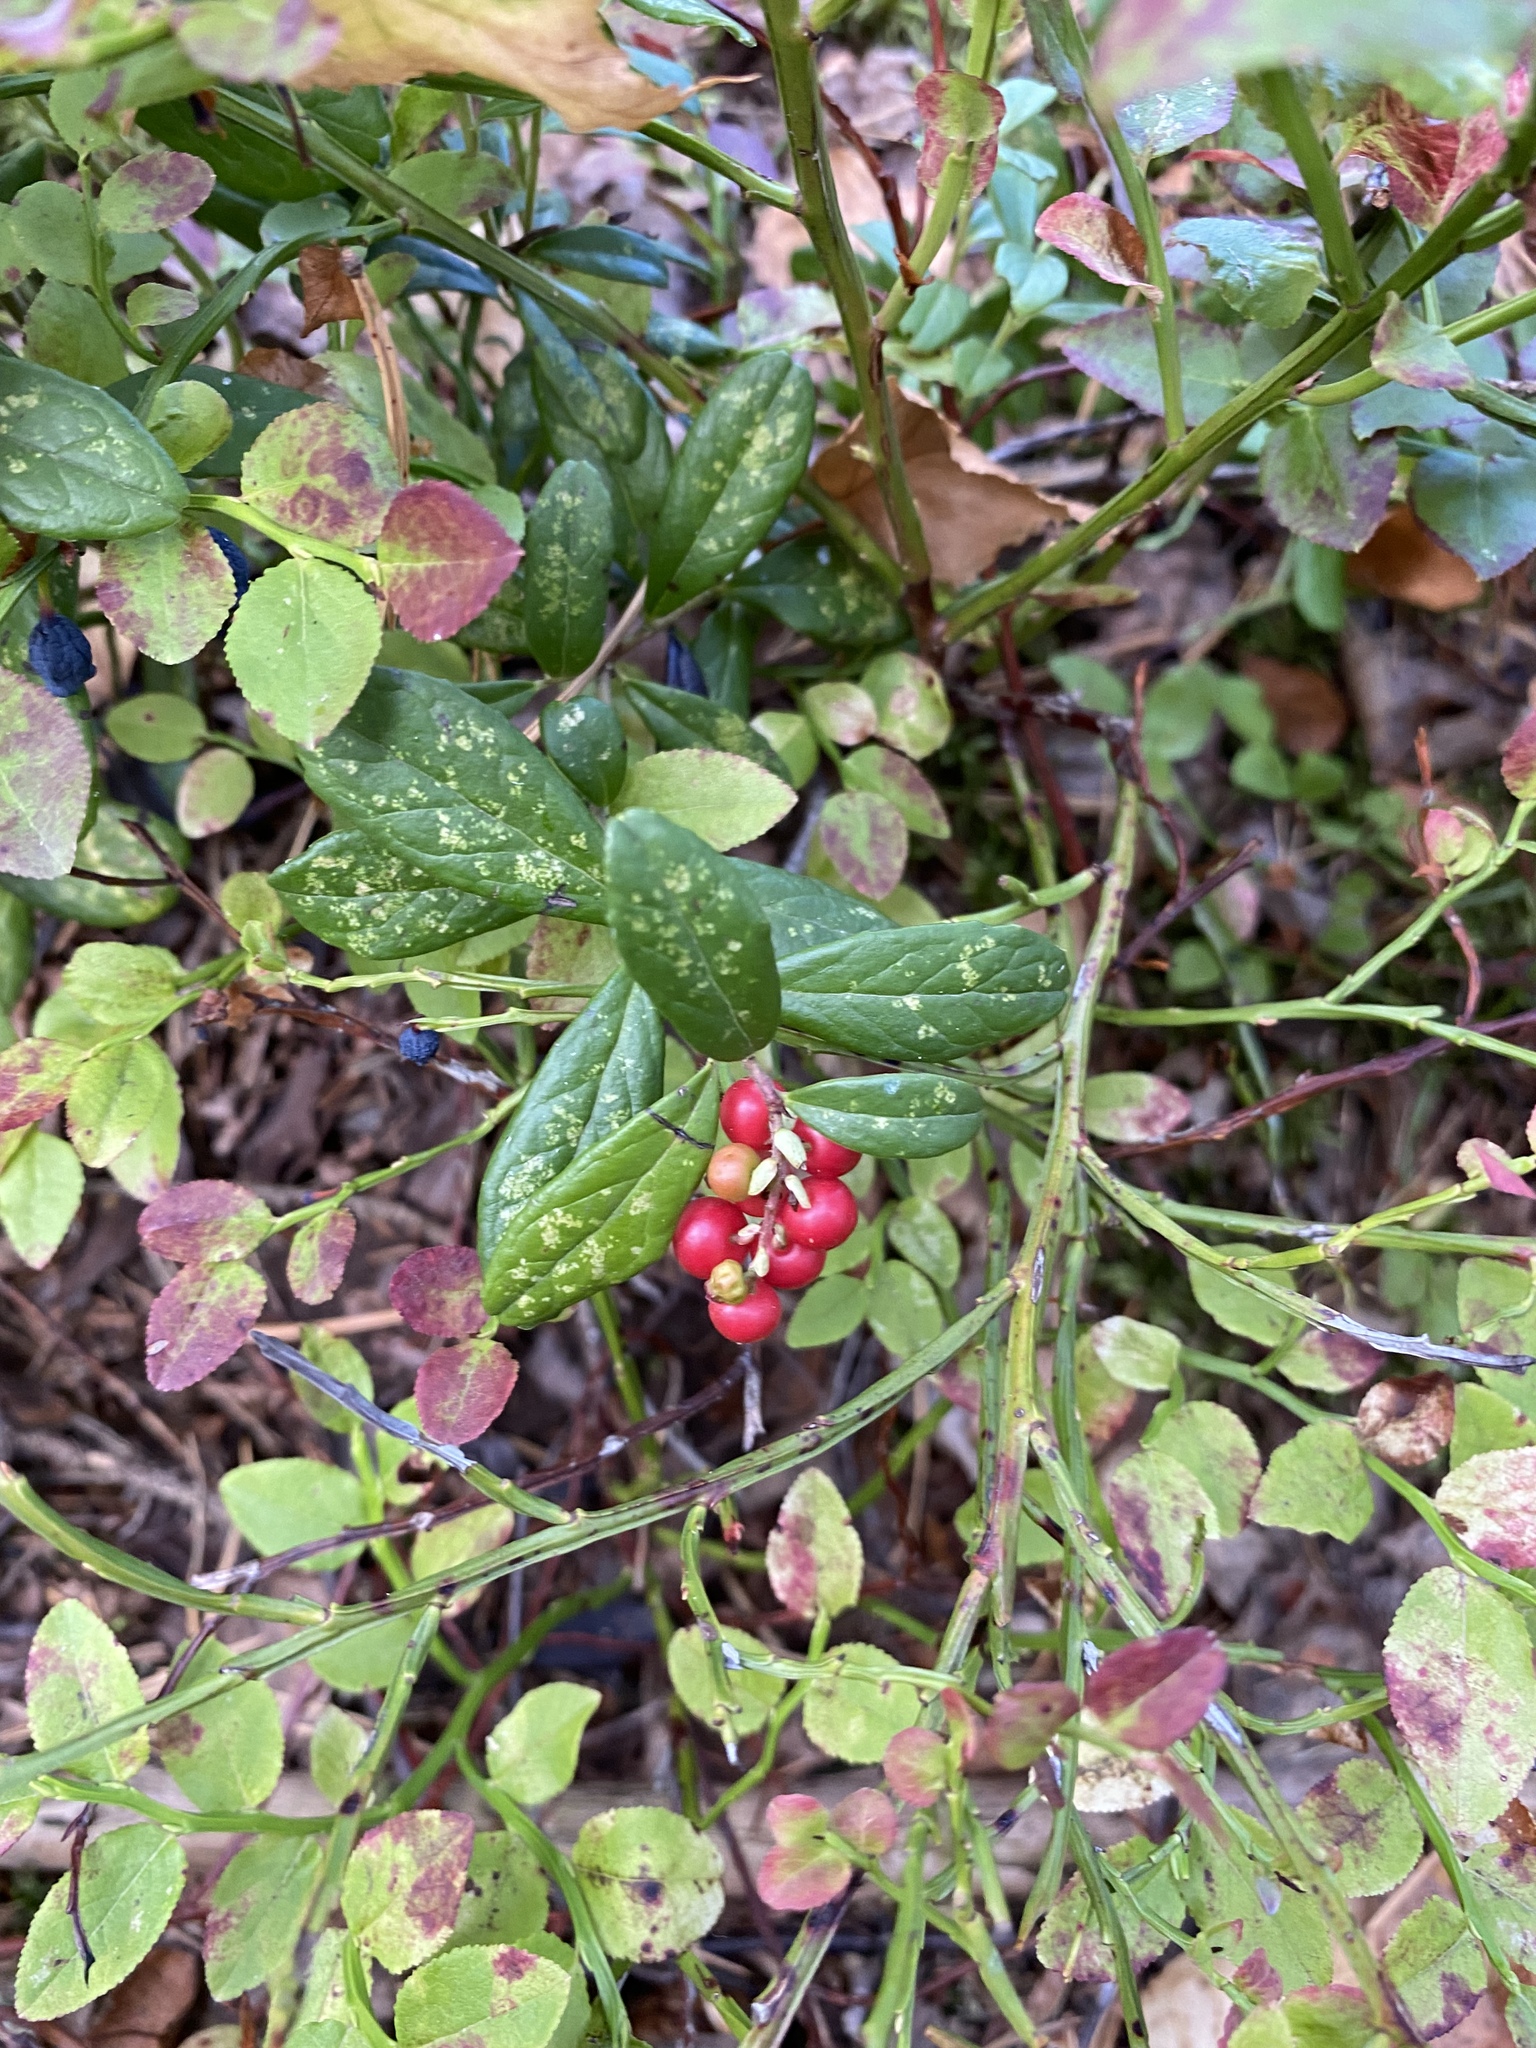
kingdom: Plantae
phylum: Tracheophyta
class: Magnoliopsida
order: Ericales
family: Ericaceae
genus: Vaccinium
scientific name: Vaccinium vitis-idaea
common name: Cowberry
